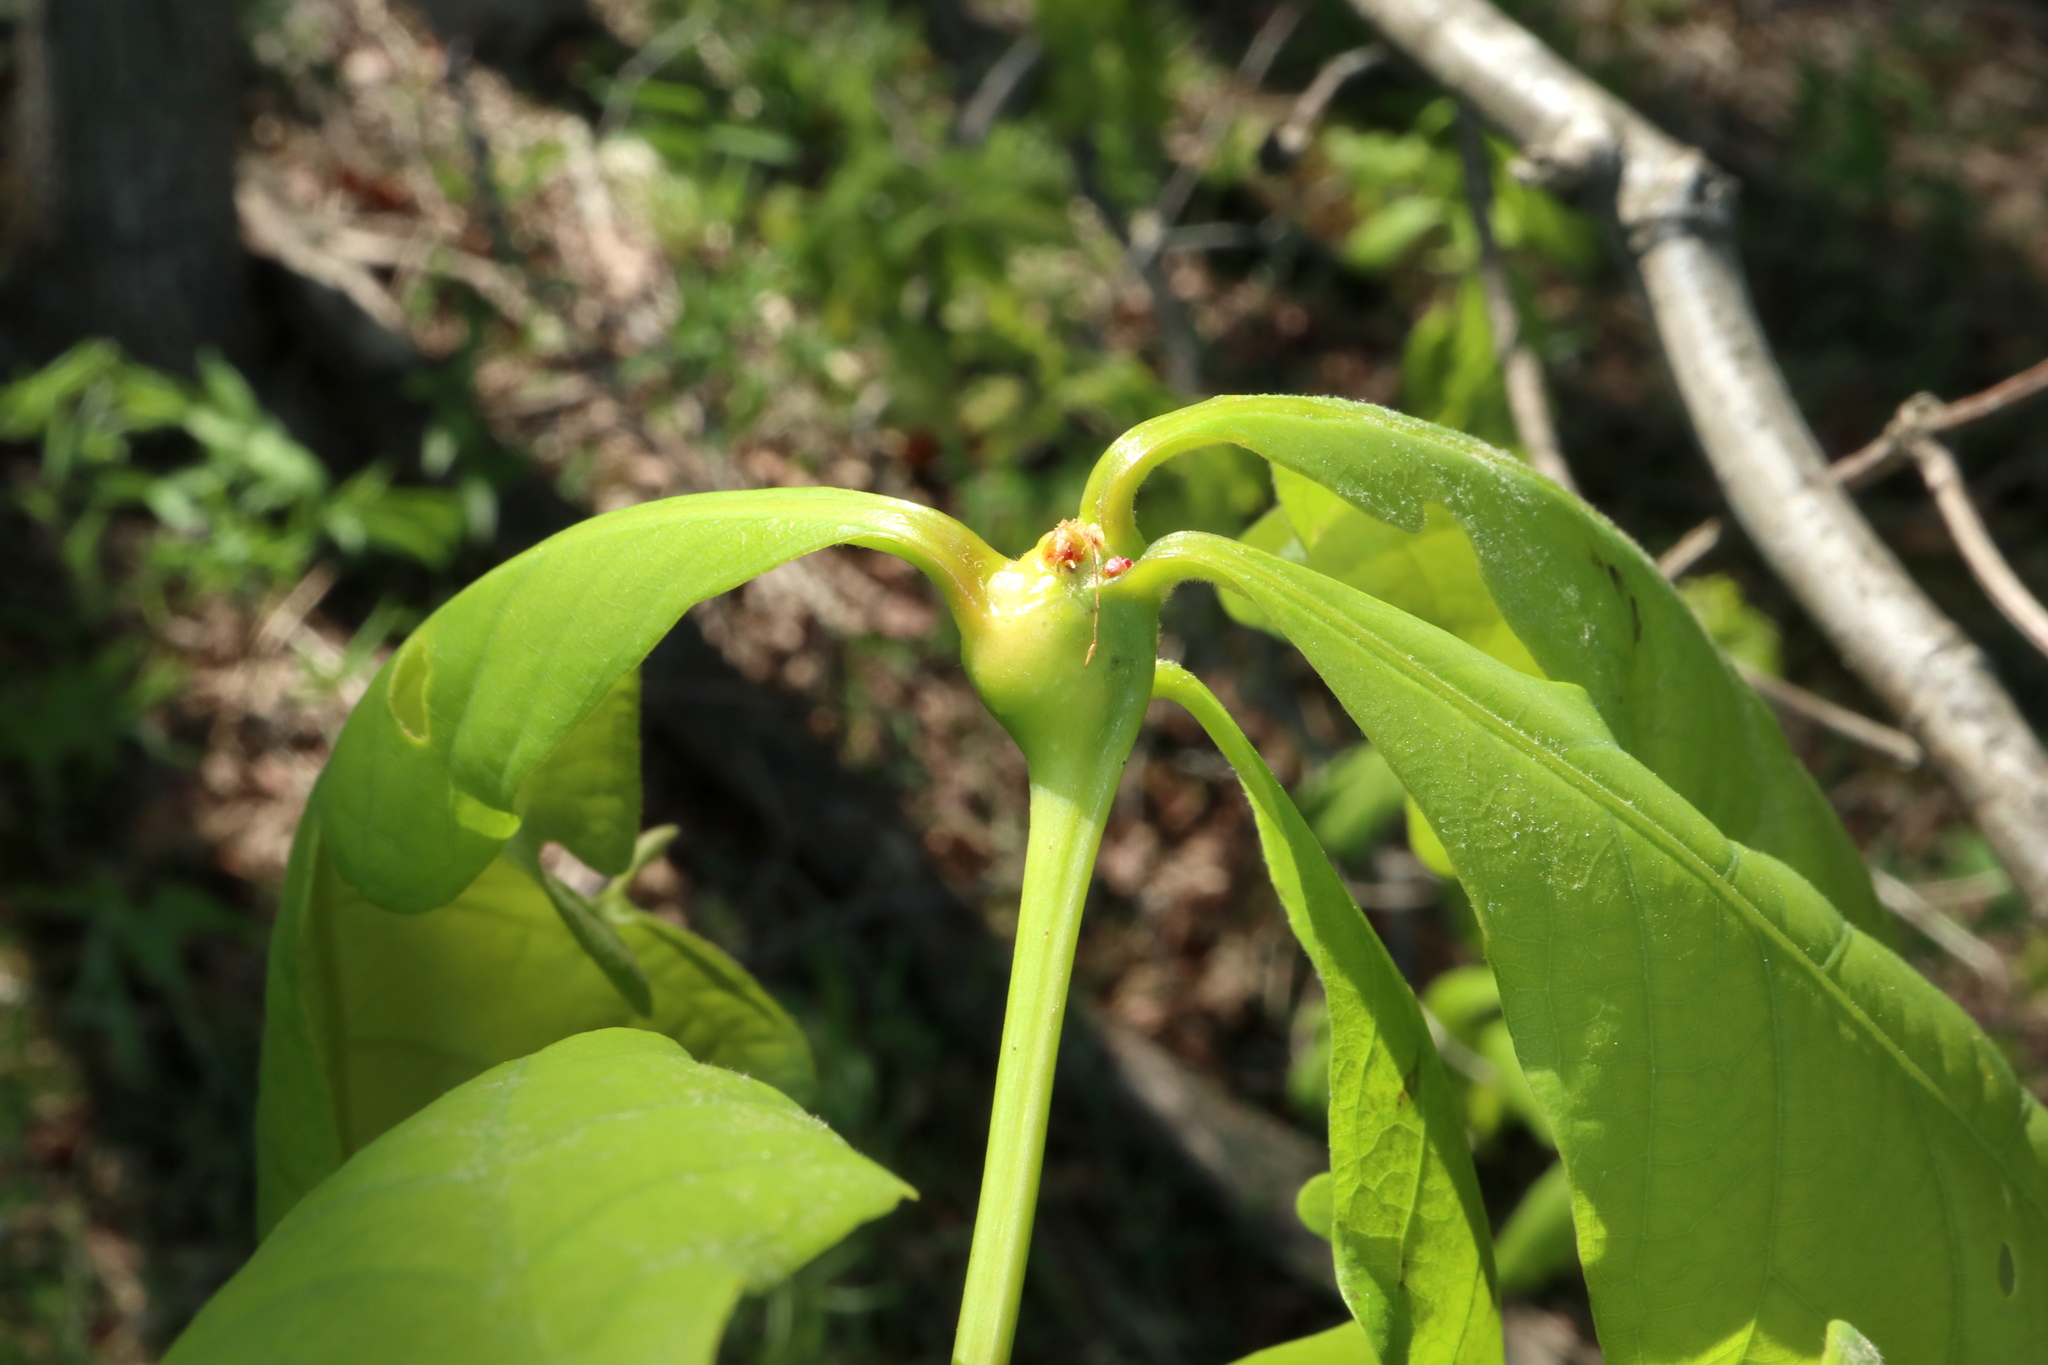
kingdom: Animalia
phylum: Arthropoda
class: Insecta
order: Hymenoptera
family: Cynipidae
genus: Callirhytis
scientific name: Callirhytis clavula
